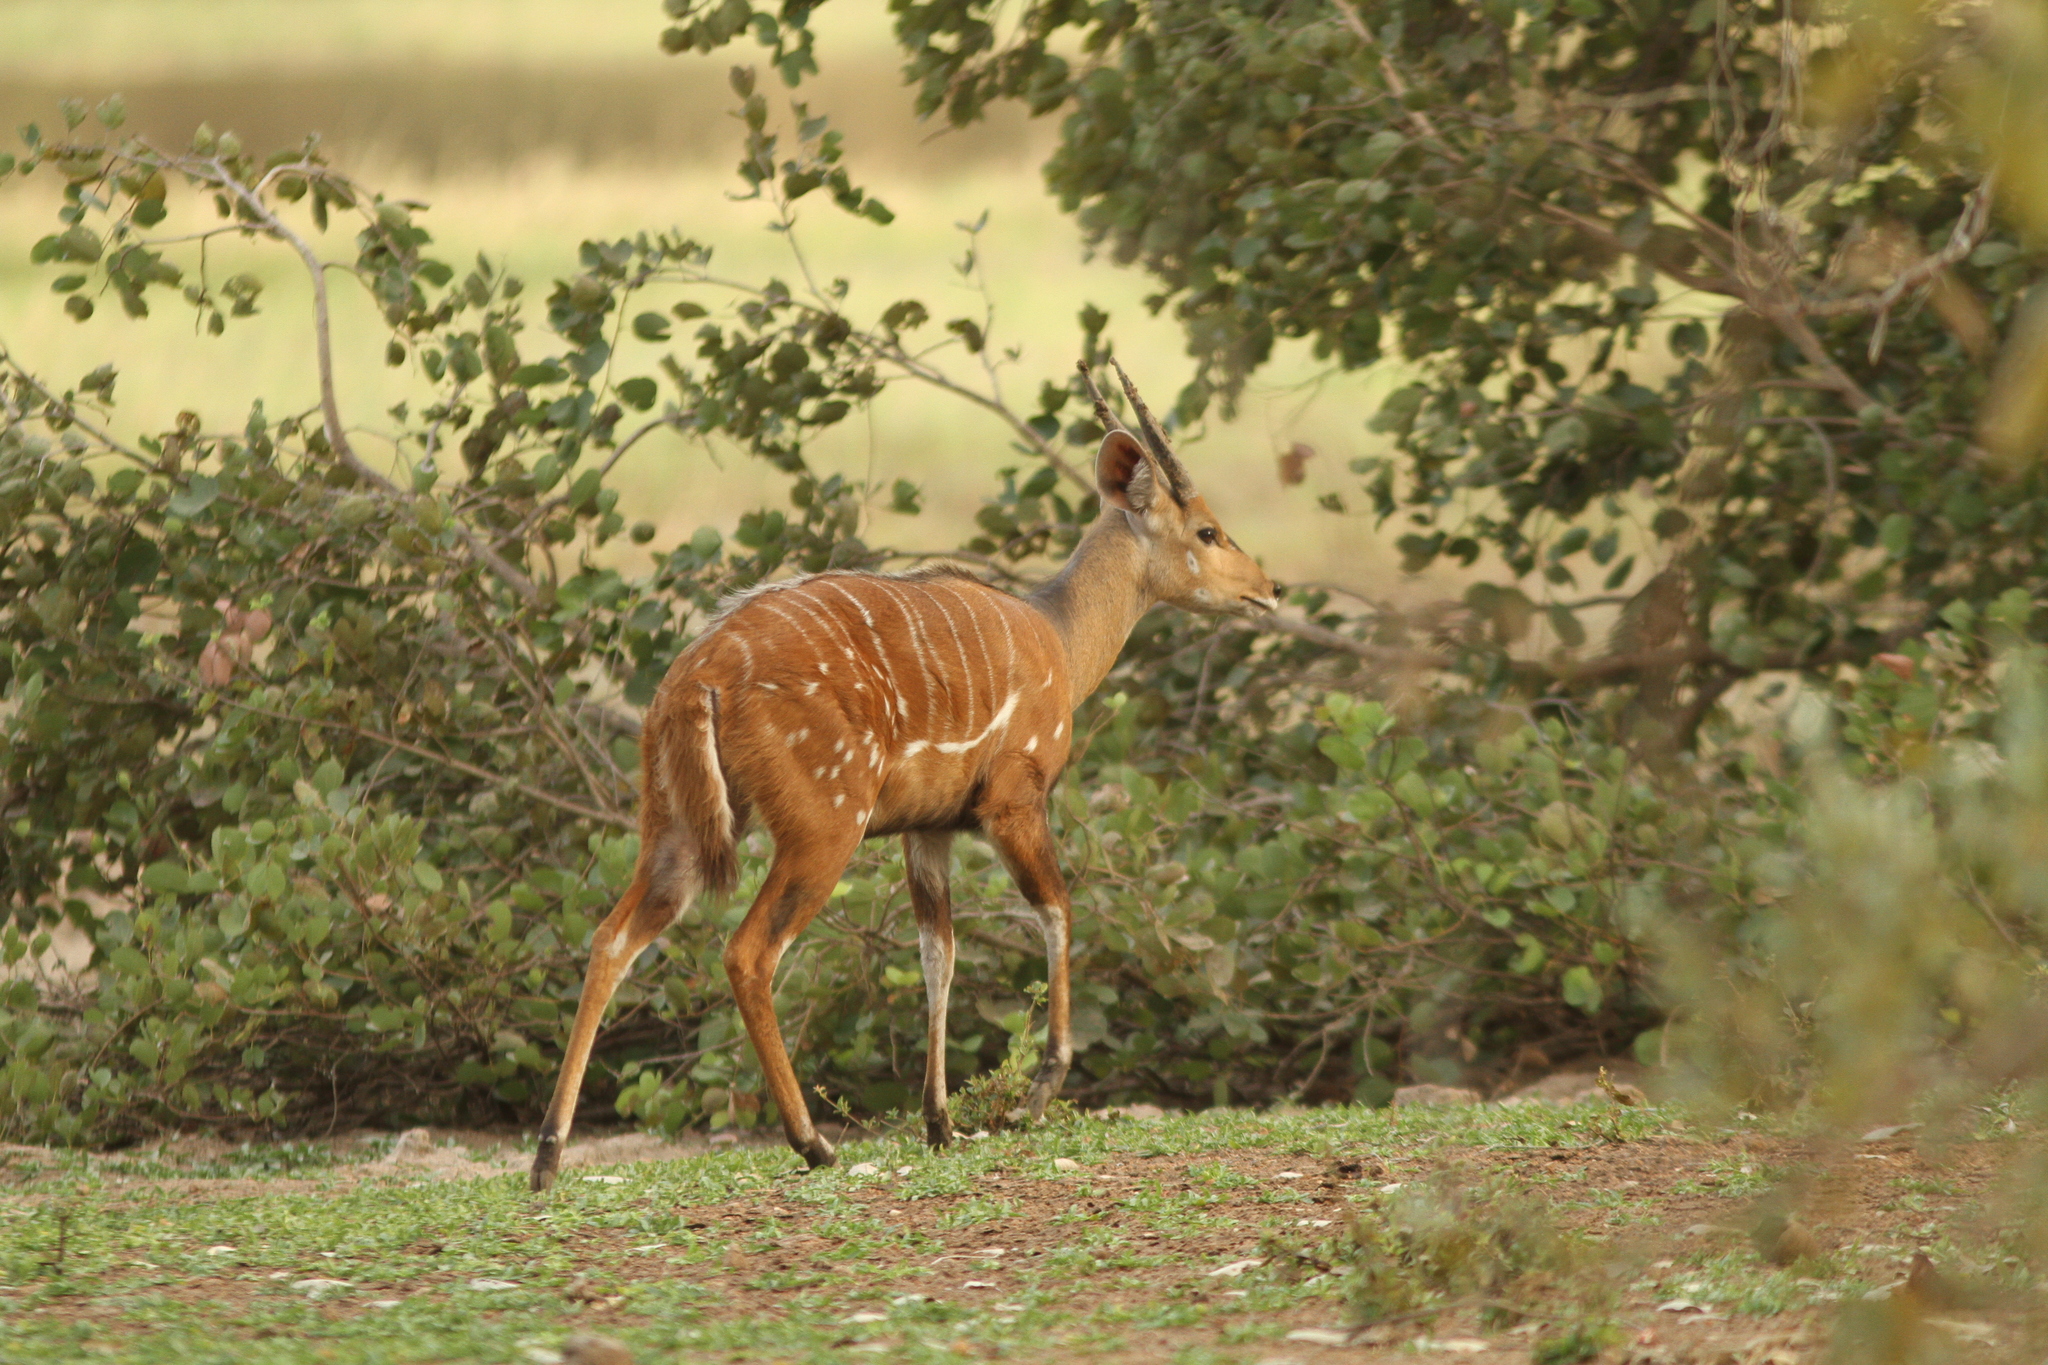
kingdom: Animalia
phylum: Chordata
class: Mammalia
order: Artiodactyla
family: Bovidae
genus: Tragelaphus
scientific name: Tragelaphus scriptus
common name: Bushbuck
